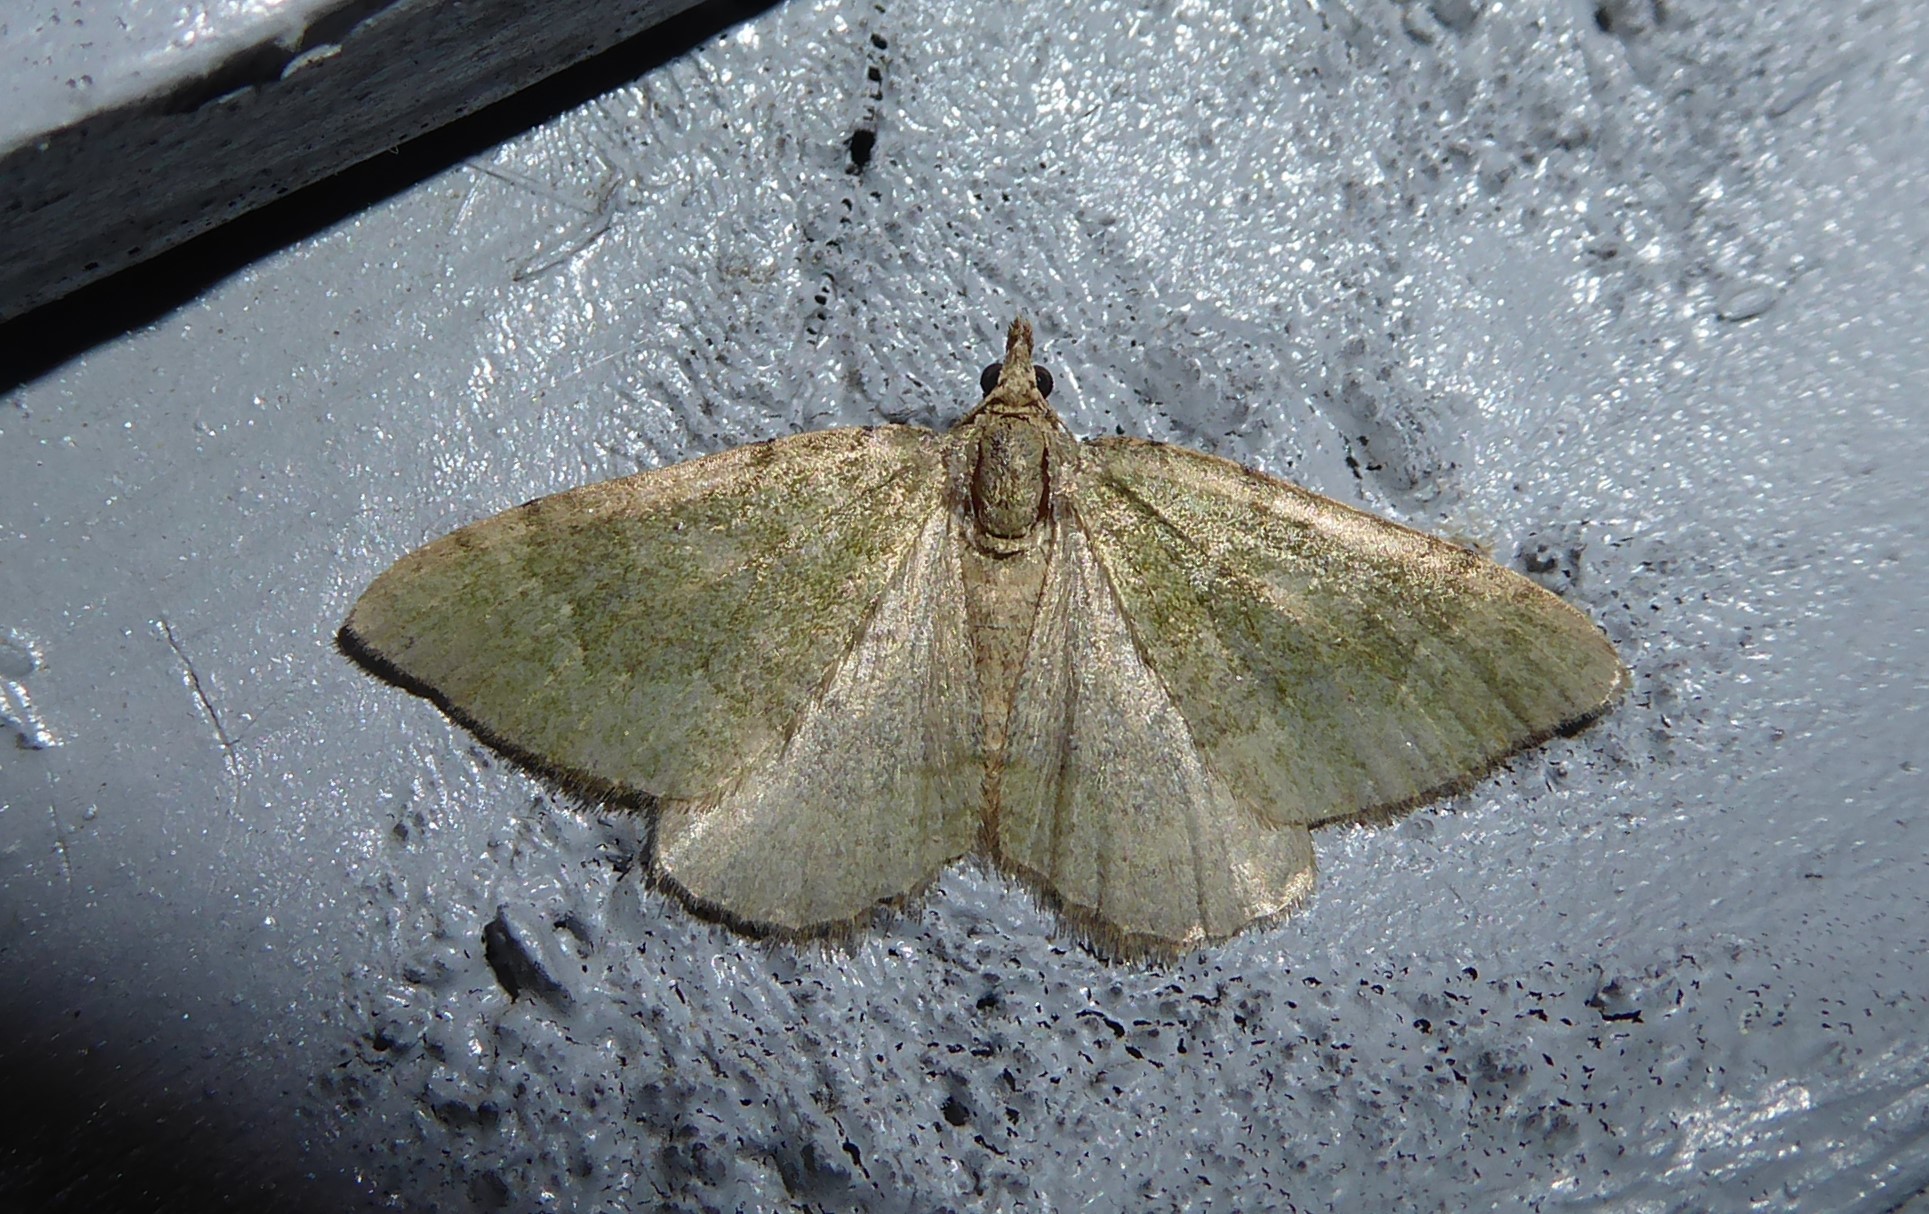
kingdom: Animalia
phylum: Arthropoda
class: Insecta
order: Lepidoptera
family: Geometridae
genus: Epyaxa
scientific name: Epyaxa rosearia
